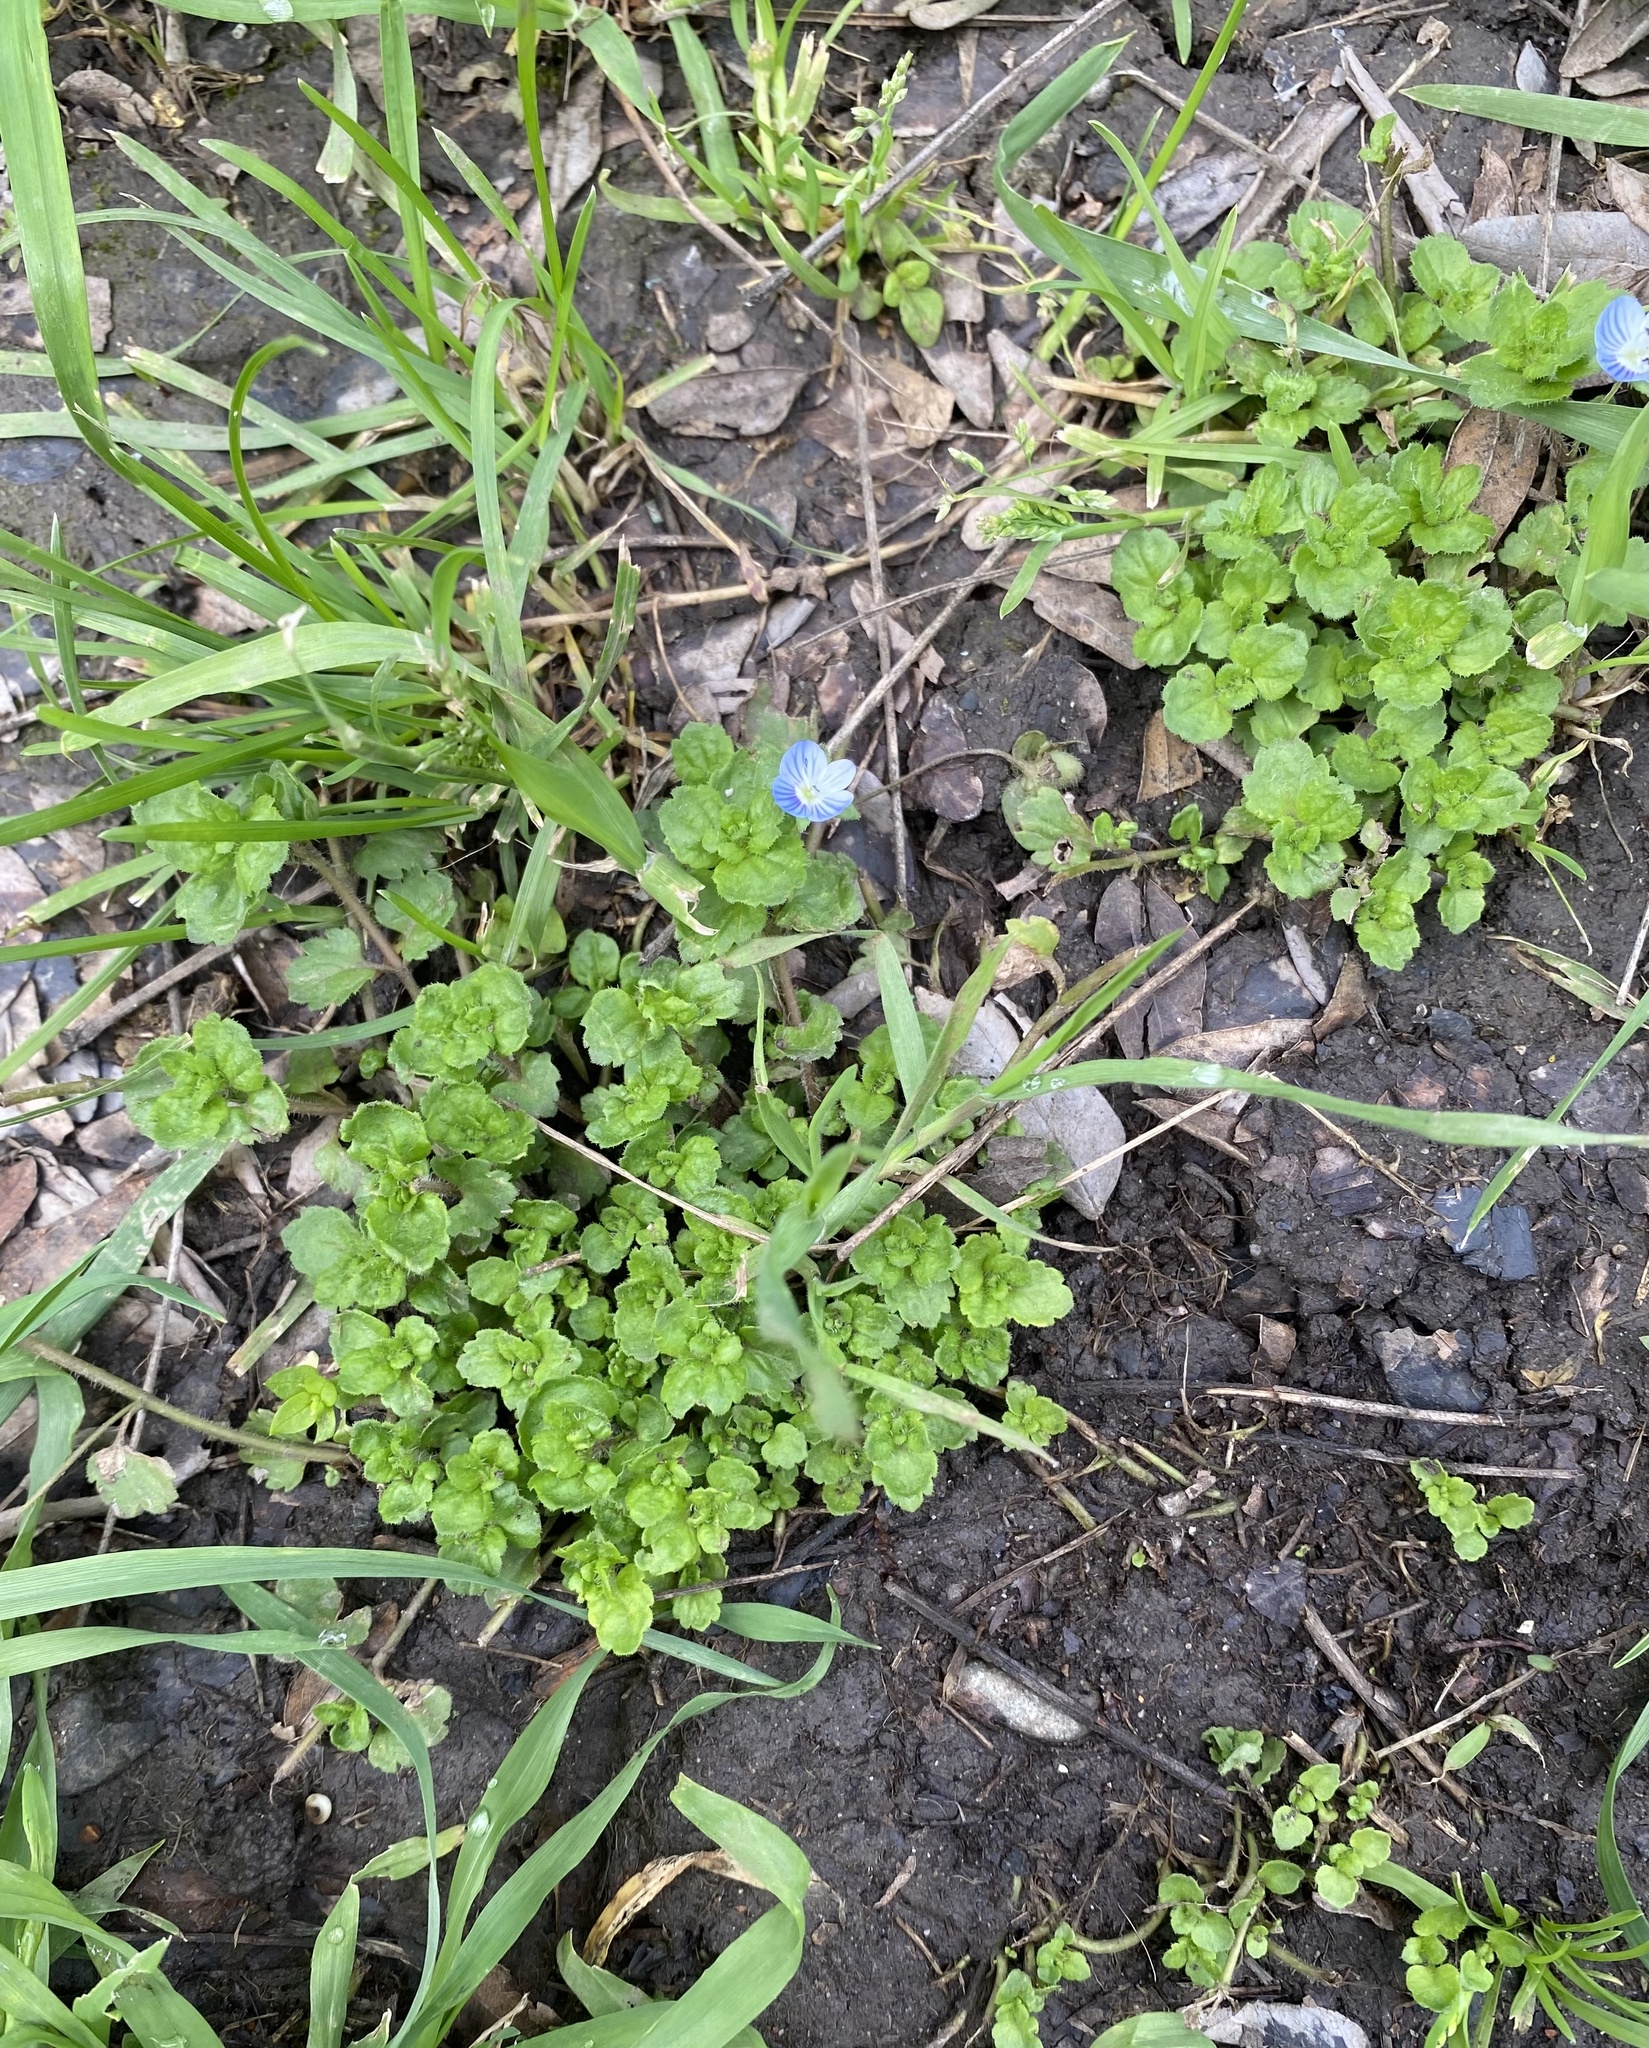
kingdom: Plantae
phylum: Tracheophyta
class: Magnoliopsida
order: Lamiales
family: Plantaginaceae
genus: Veronica
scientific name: Veronica persica
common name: Common field-speedwell
